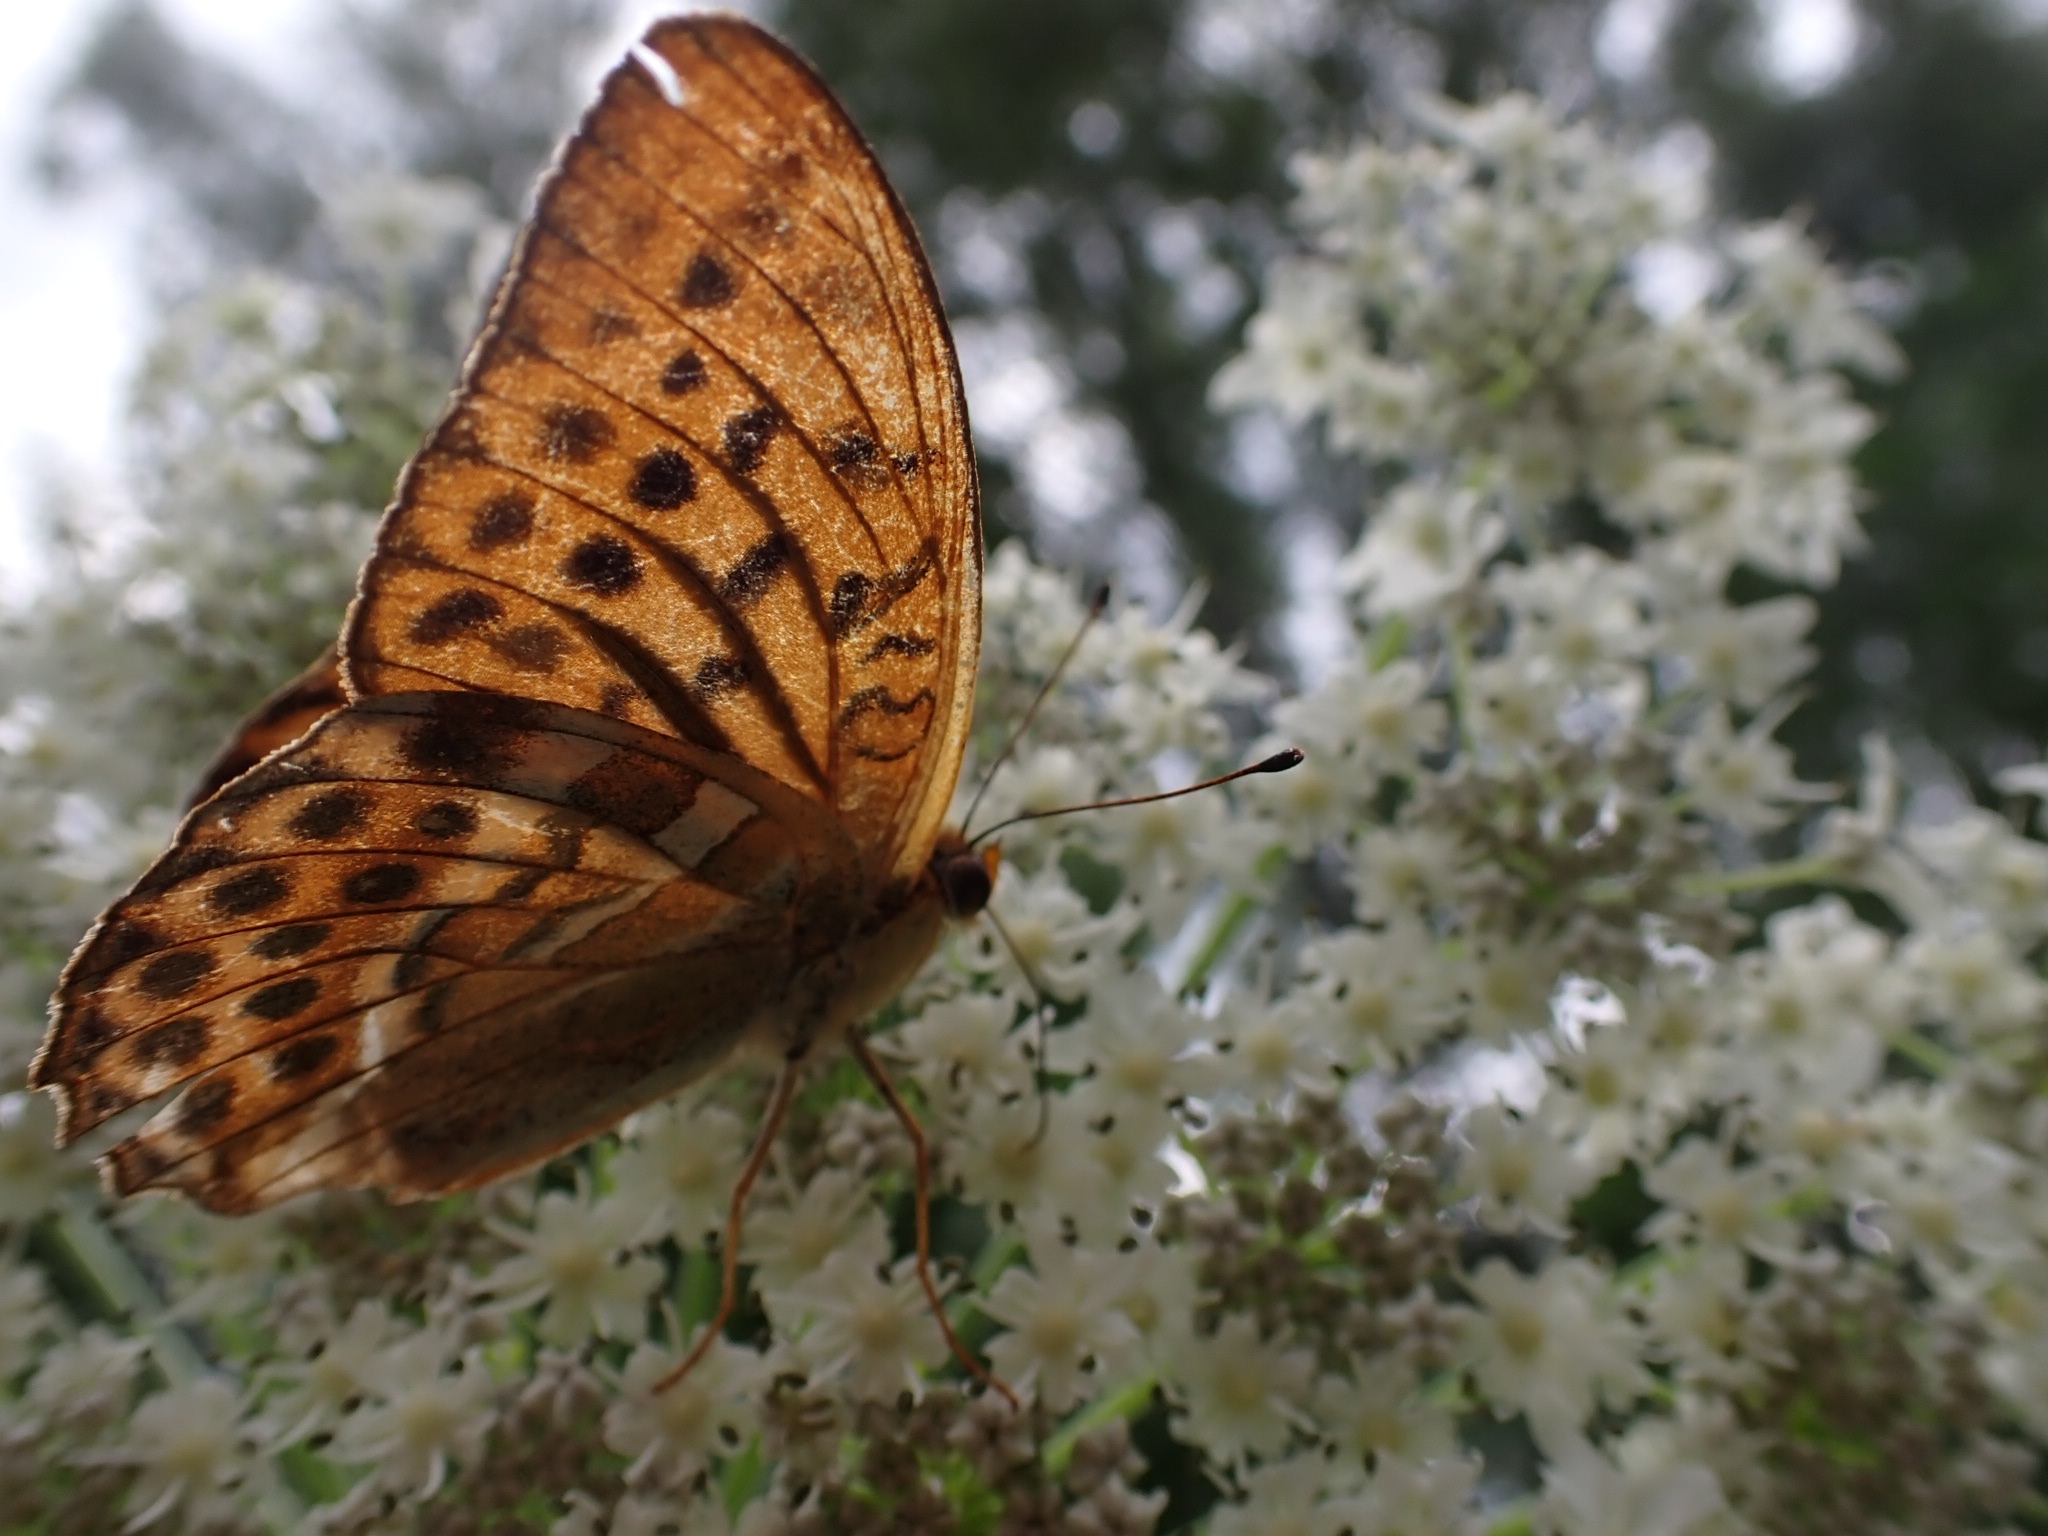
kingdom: Animalia
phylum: Arthropoda
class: Insecta
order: Lepidoptera
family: Nymphalidae
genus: Argynnis
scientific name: Argynnis paphia
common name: Silver-washed fritillary
